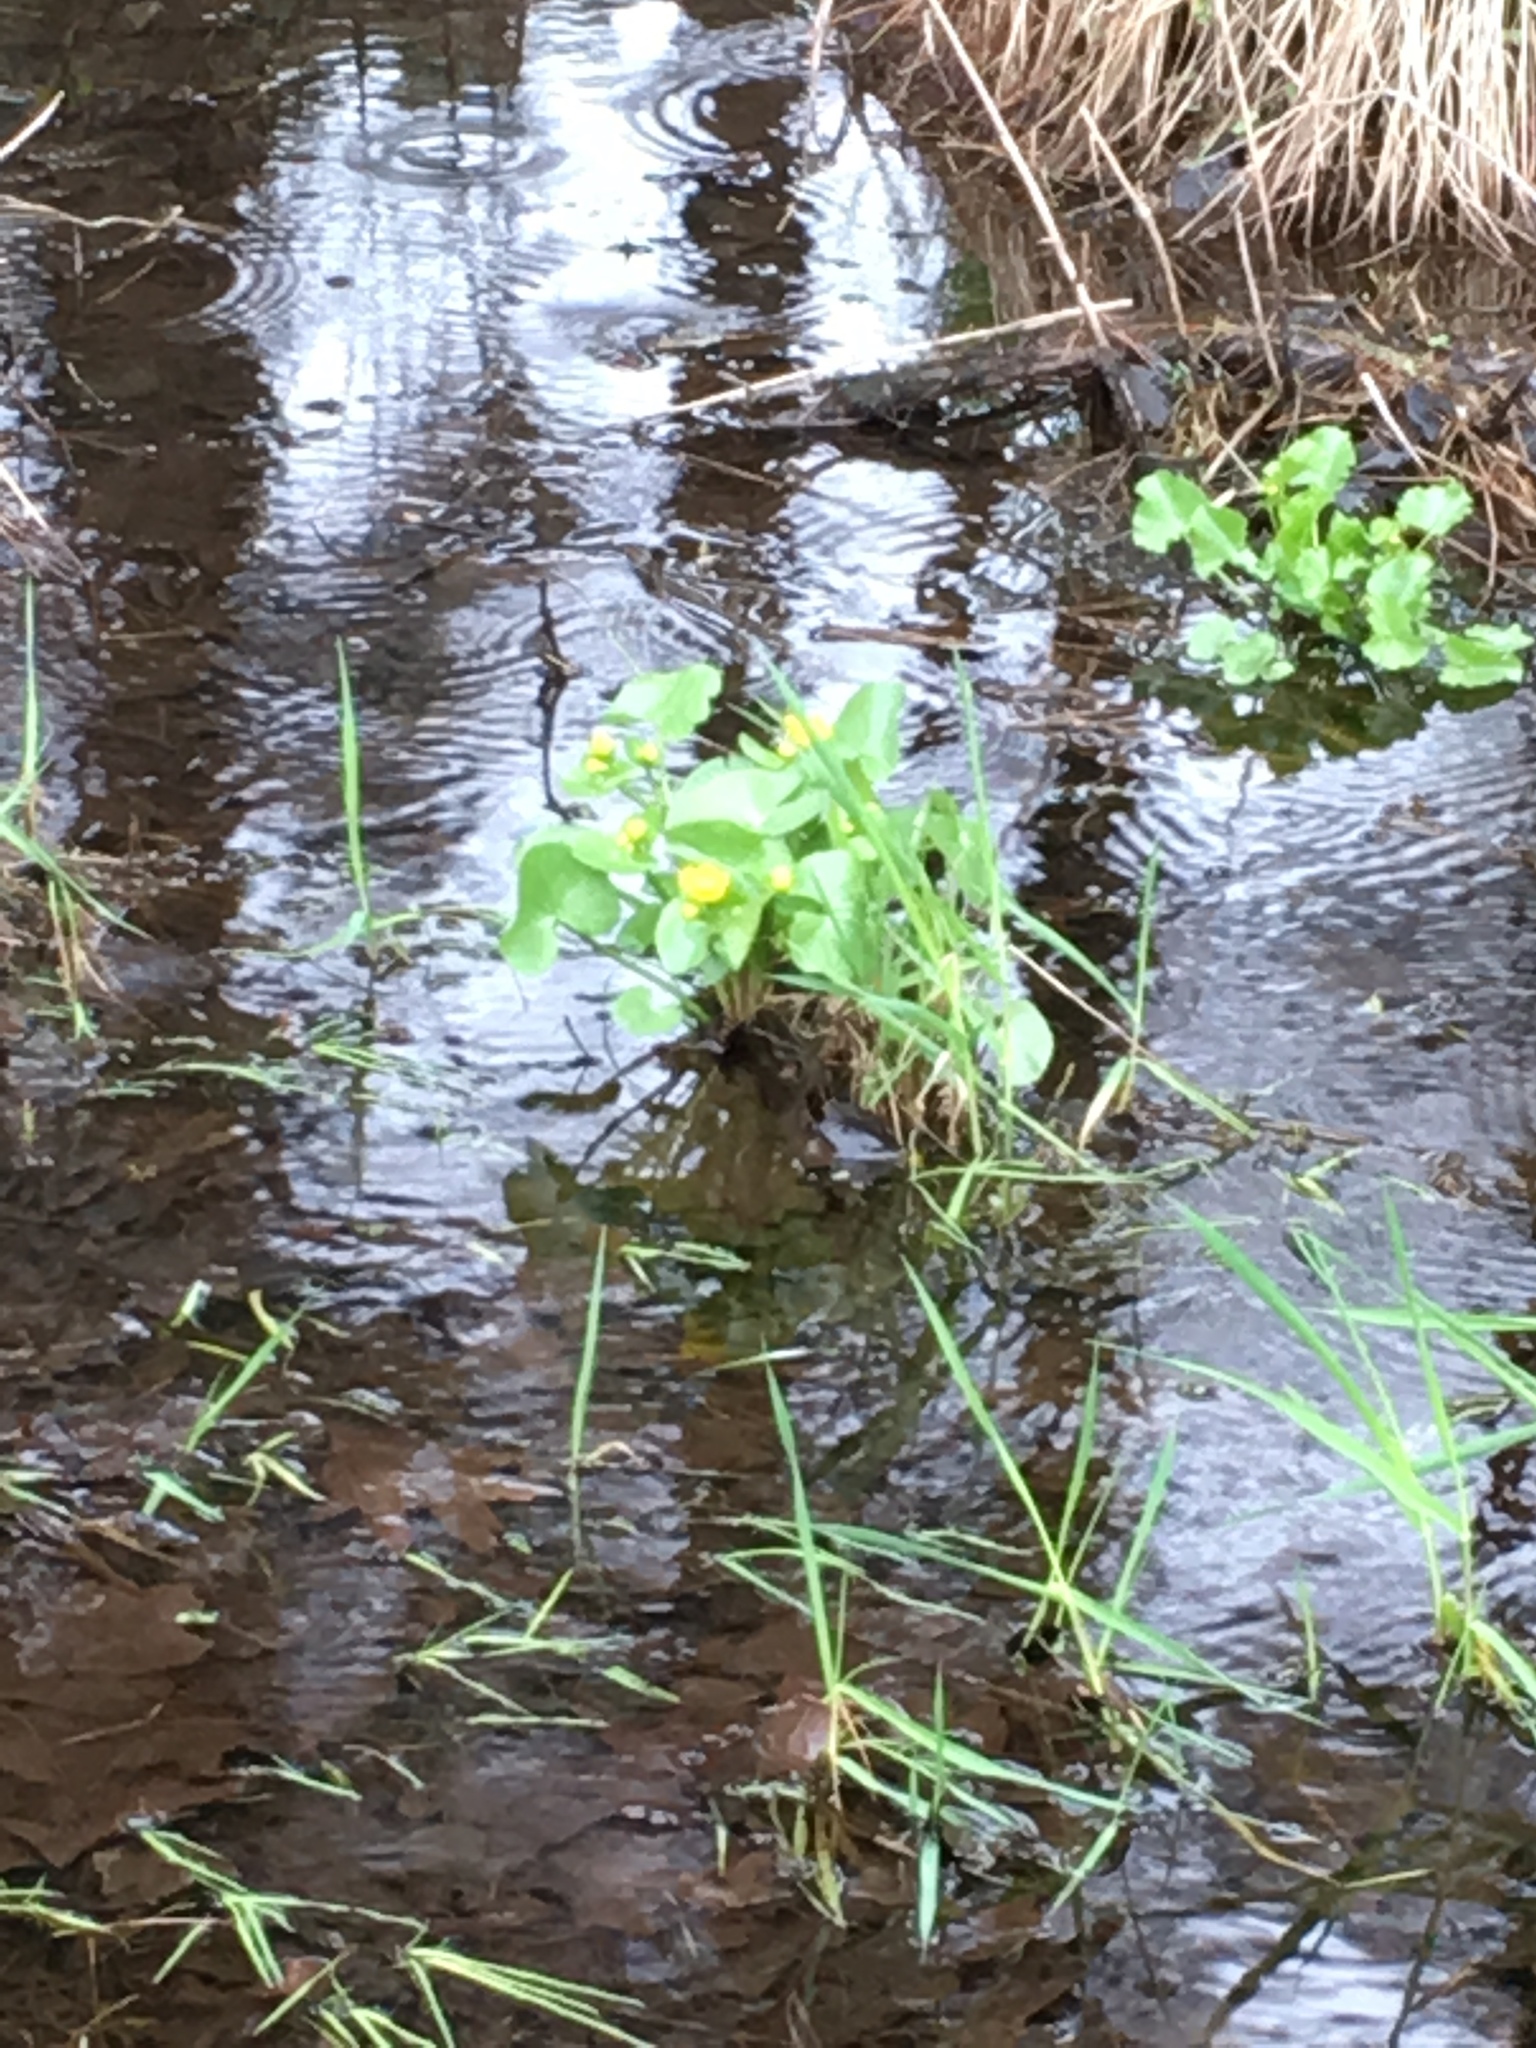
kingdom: Plantae
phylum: Tracheophyta
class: Magnoliopsida
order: Ranunculales
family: Ranunculaceae
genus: Caltha
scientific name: Caltha palustris
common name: Marsh marigold
